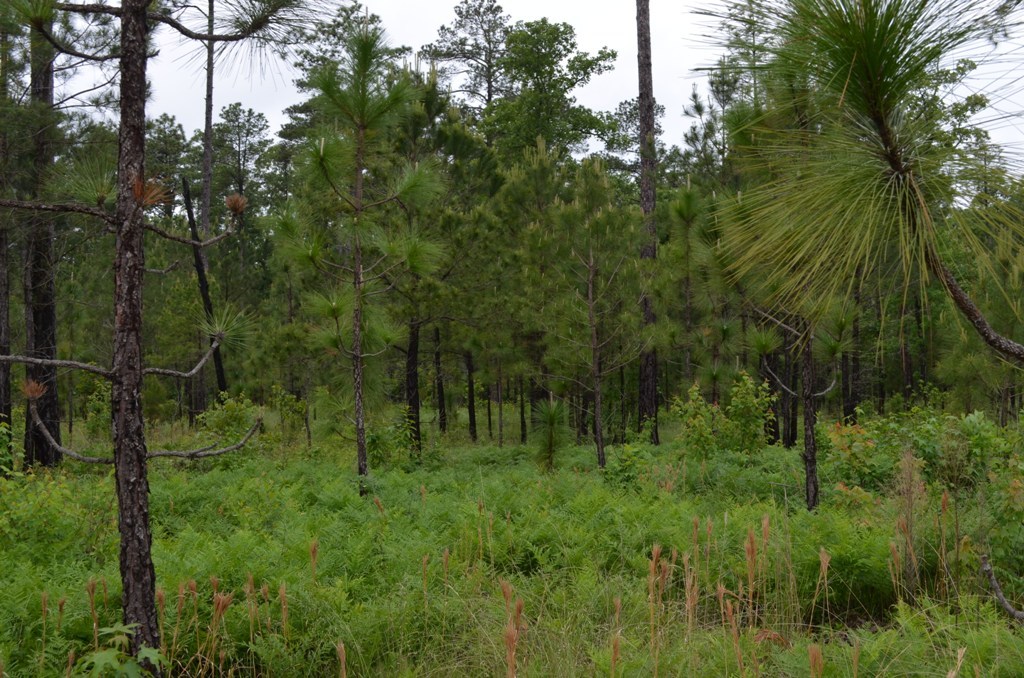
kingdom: Plantae
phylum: Tracheophyta
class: Pinopsida
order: Pinales
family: Pinaceae
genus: Pinus
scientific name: Pinus palustris
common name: Longleaf pine
